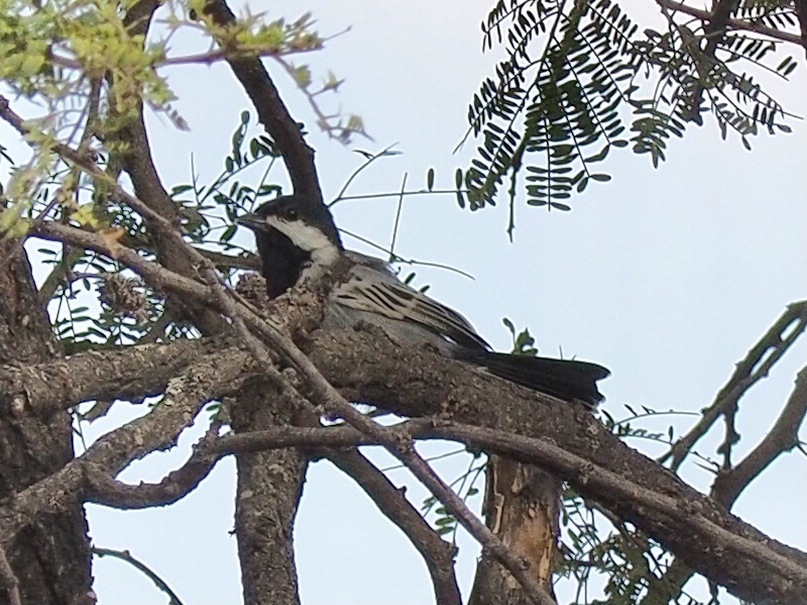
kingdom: Animalia
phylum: Chordata
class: Aves
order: Passeriformes
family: Paridae
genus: Parus
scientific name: Parus griseiventris
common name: Miombo tit
